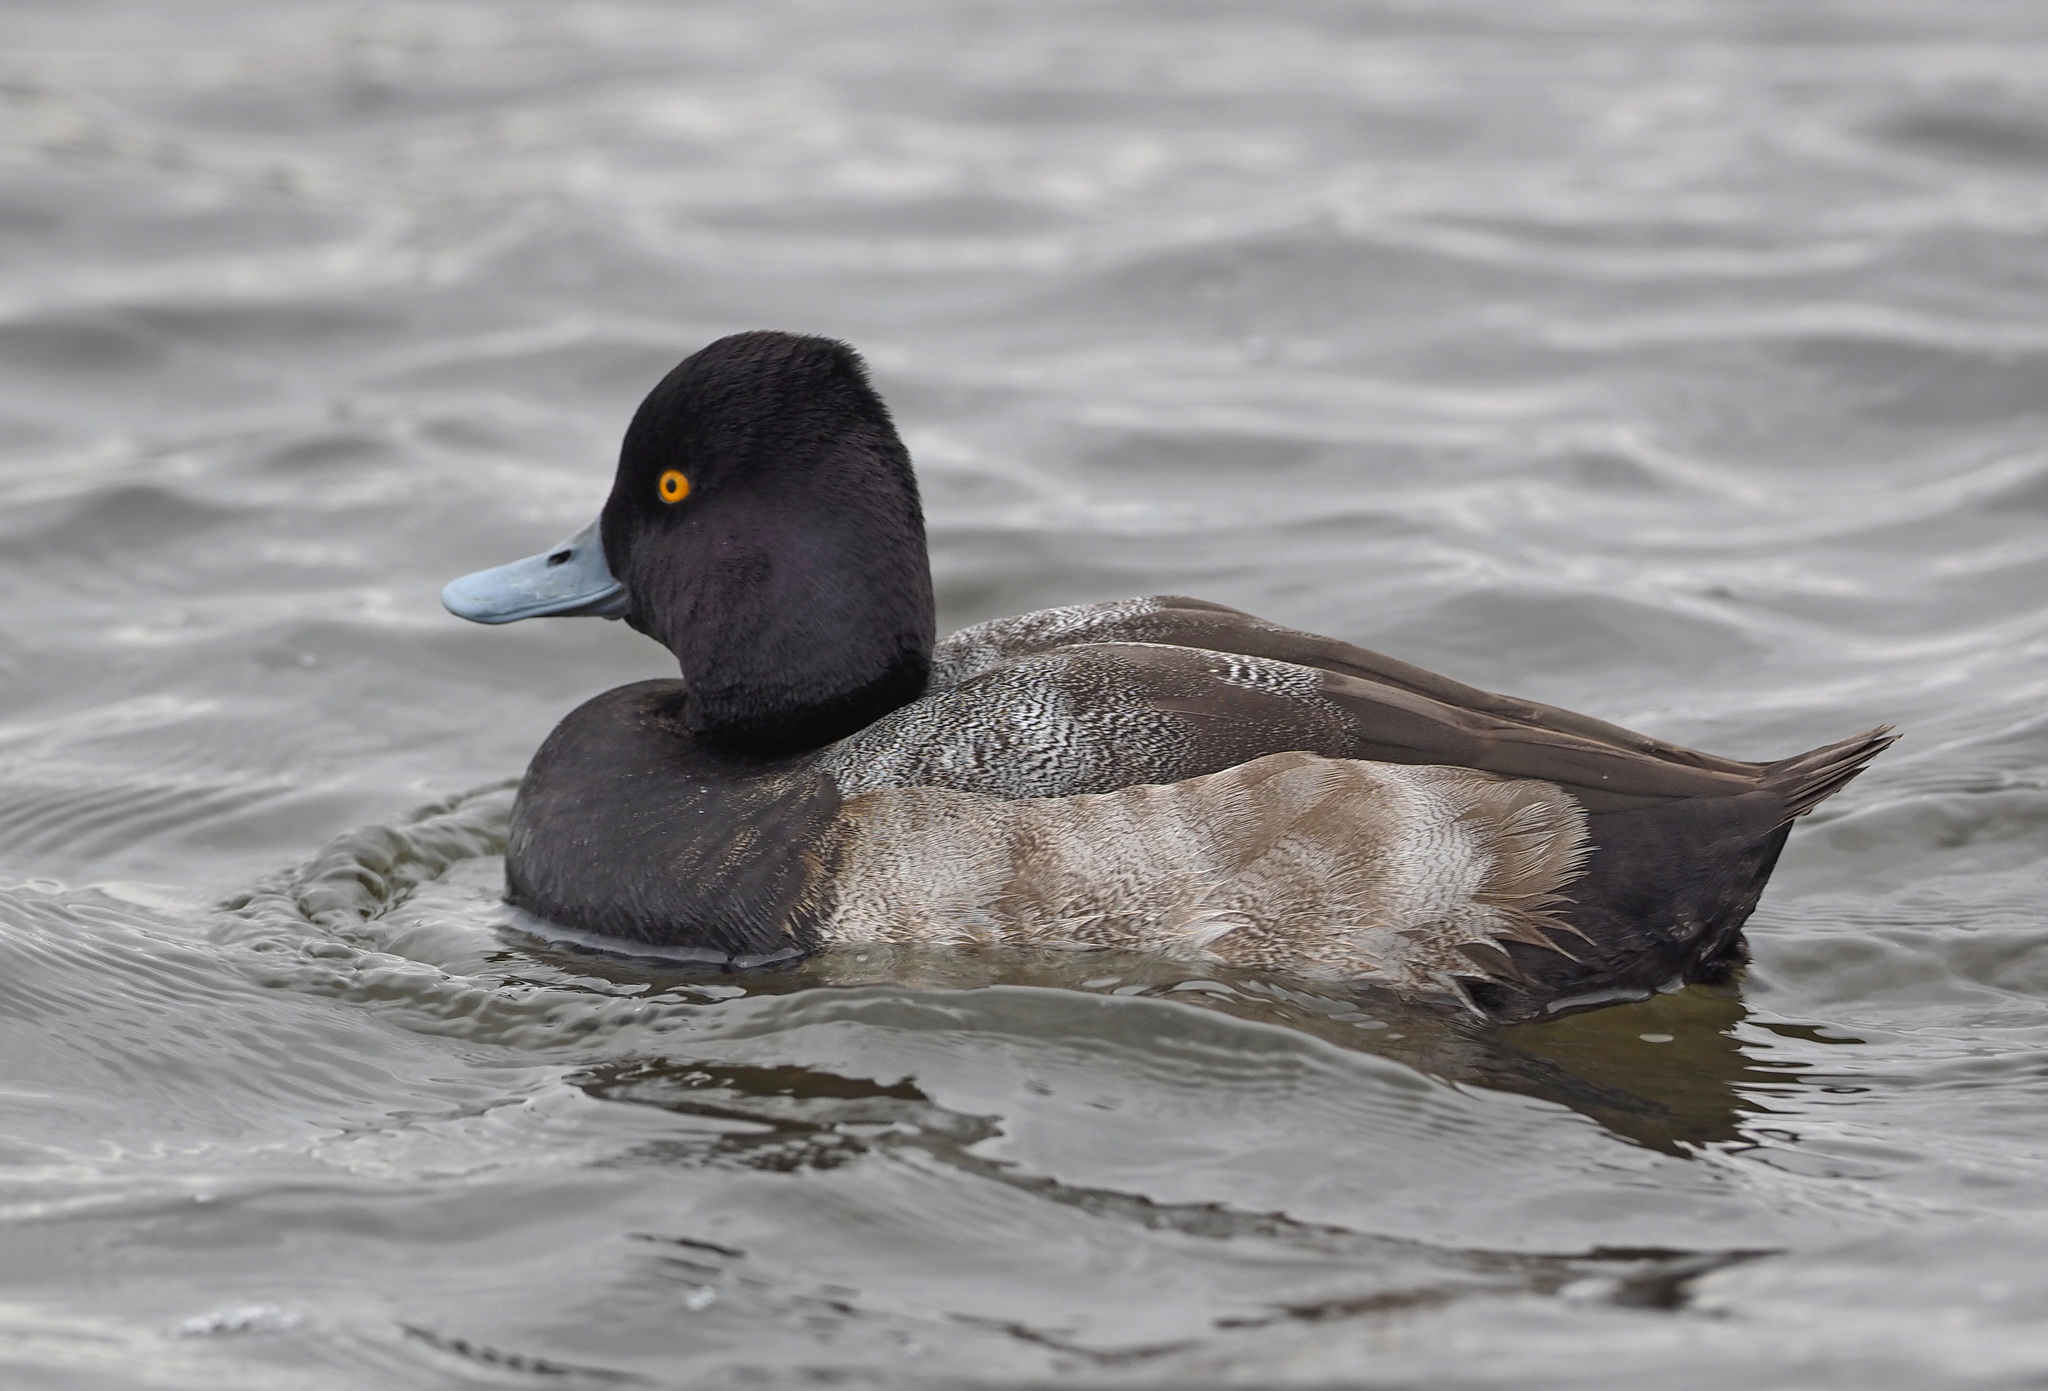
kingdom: Animalia
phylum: Chordata
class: Aves
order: Anseriformes
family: Anatidae
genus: Aythya
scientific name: Aythya affinis
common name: Lesser scaup
